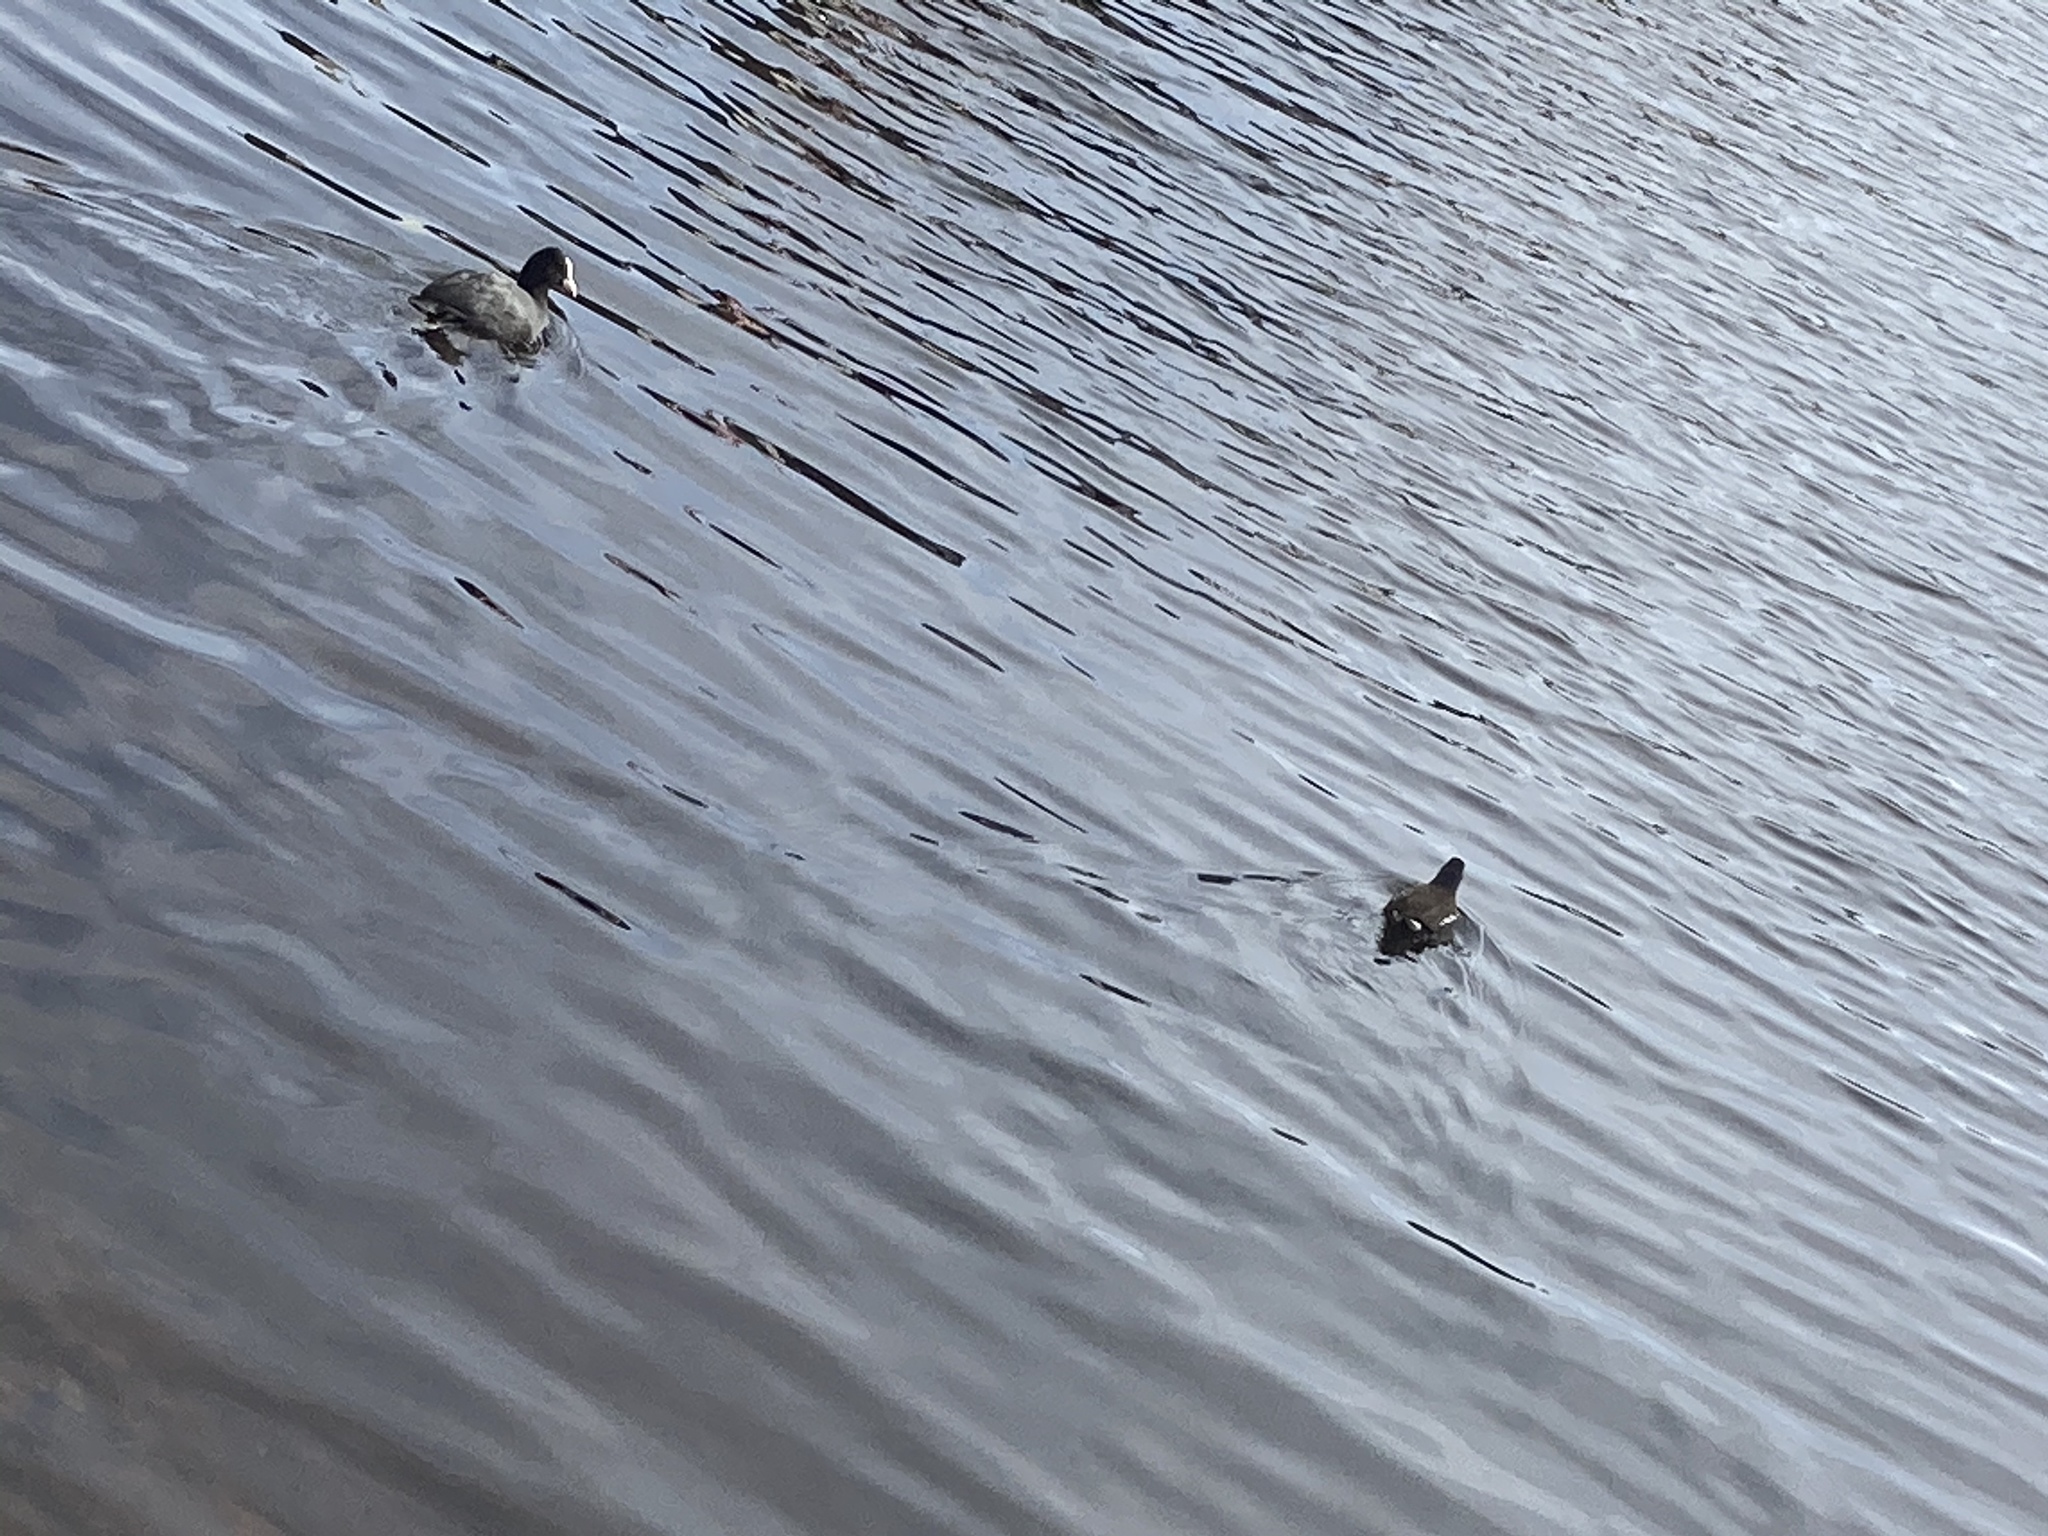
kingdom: Animalia
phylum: Chordata
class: Aves
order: Gruiformes
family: Rallidae
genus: Fulica
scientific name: Fulica atra
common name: Eurasian coot
